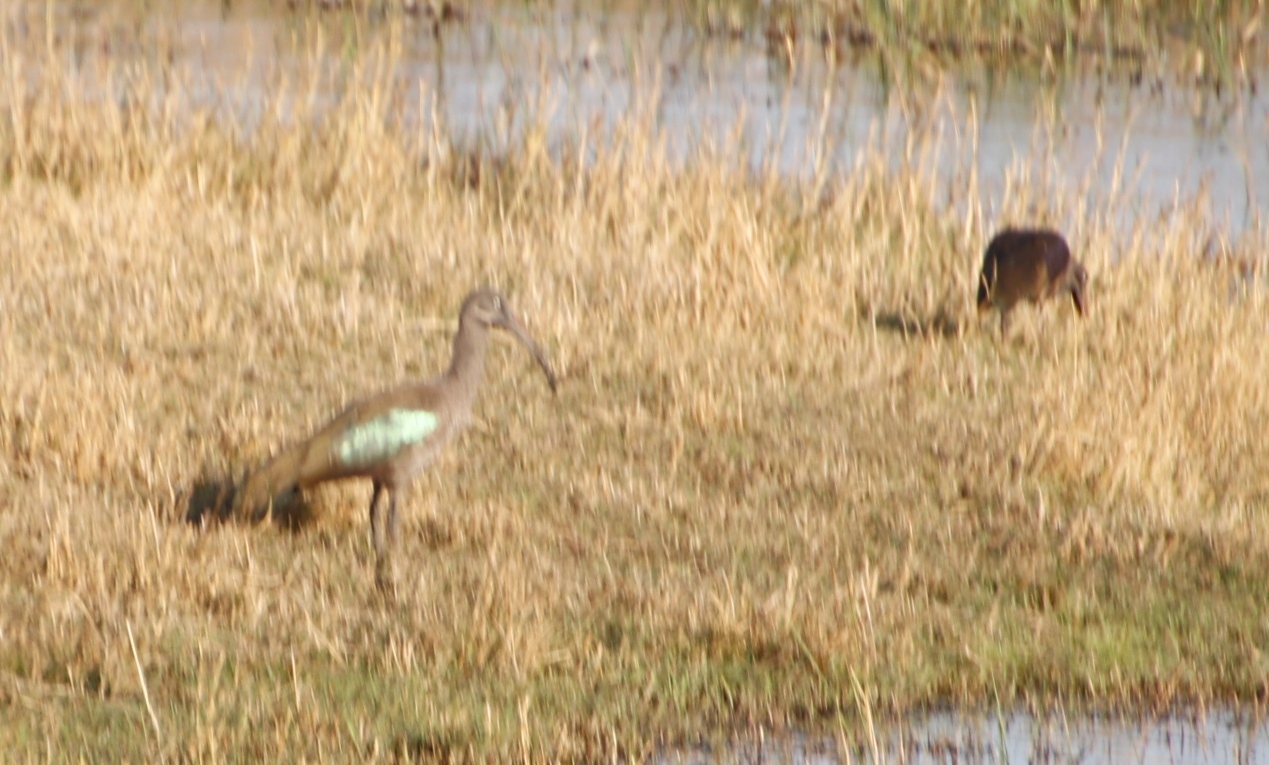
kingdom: Animalia
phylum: Chordata
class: Aves
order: Pelecaniformes
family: Threskiornithidae
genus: Bostrychia
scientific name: Bostrychia hagedash
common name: Hadada ibis
